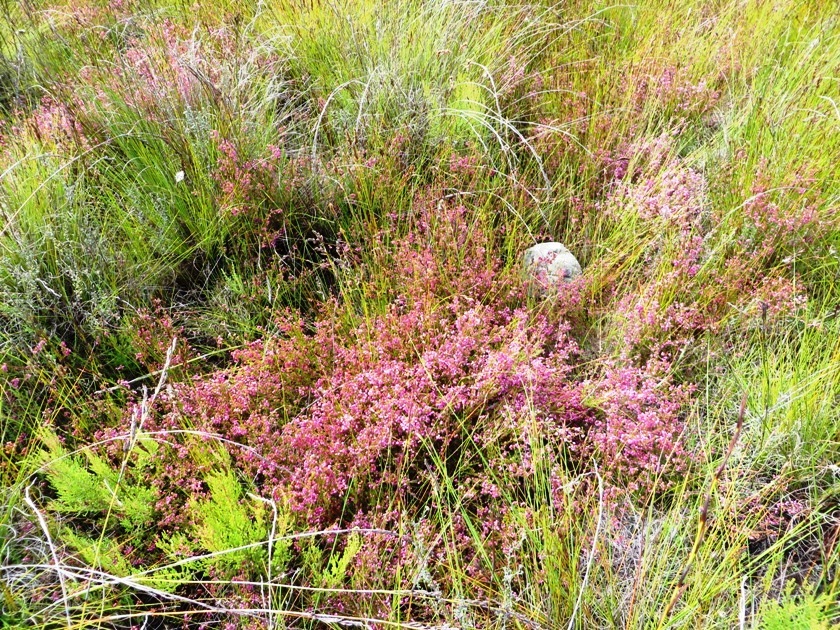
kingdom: Plantae
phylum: Tracheophyta
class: Magnoliopsida
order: Ericales
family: Ericaceae
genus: Erica
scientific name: Erica multumbellifera
